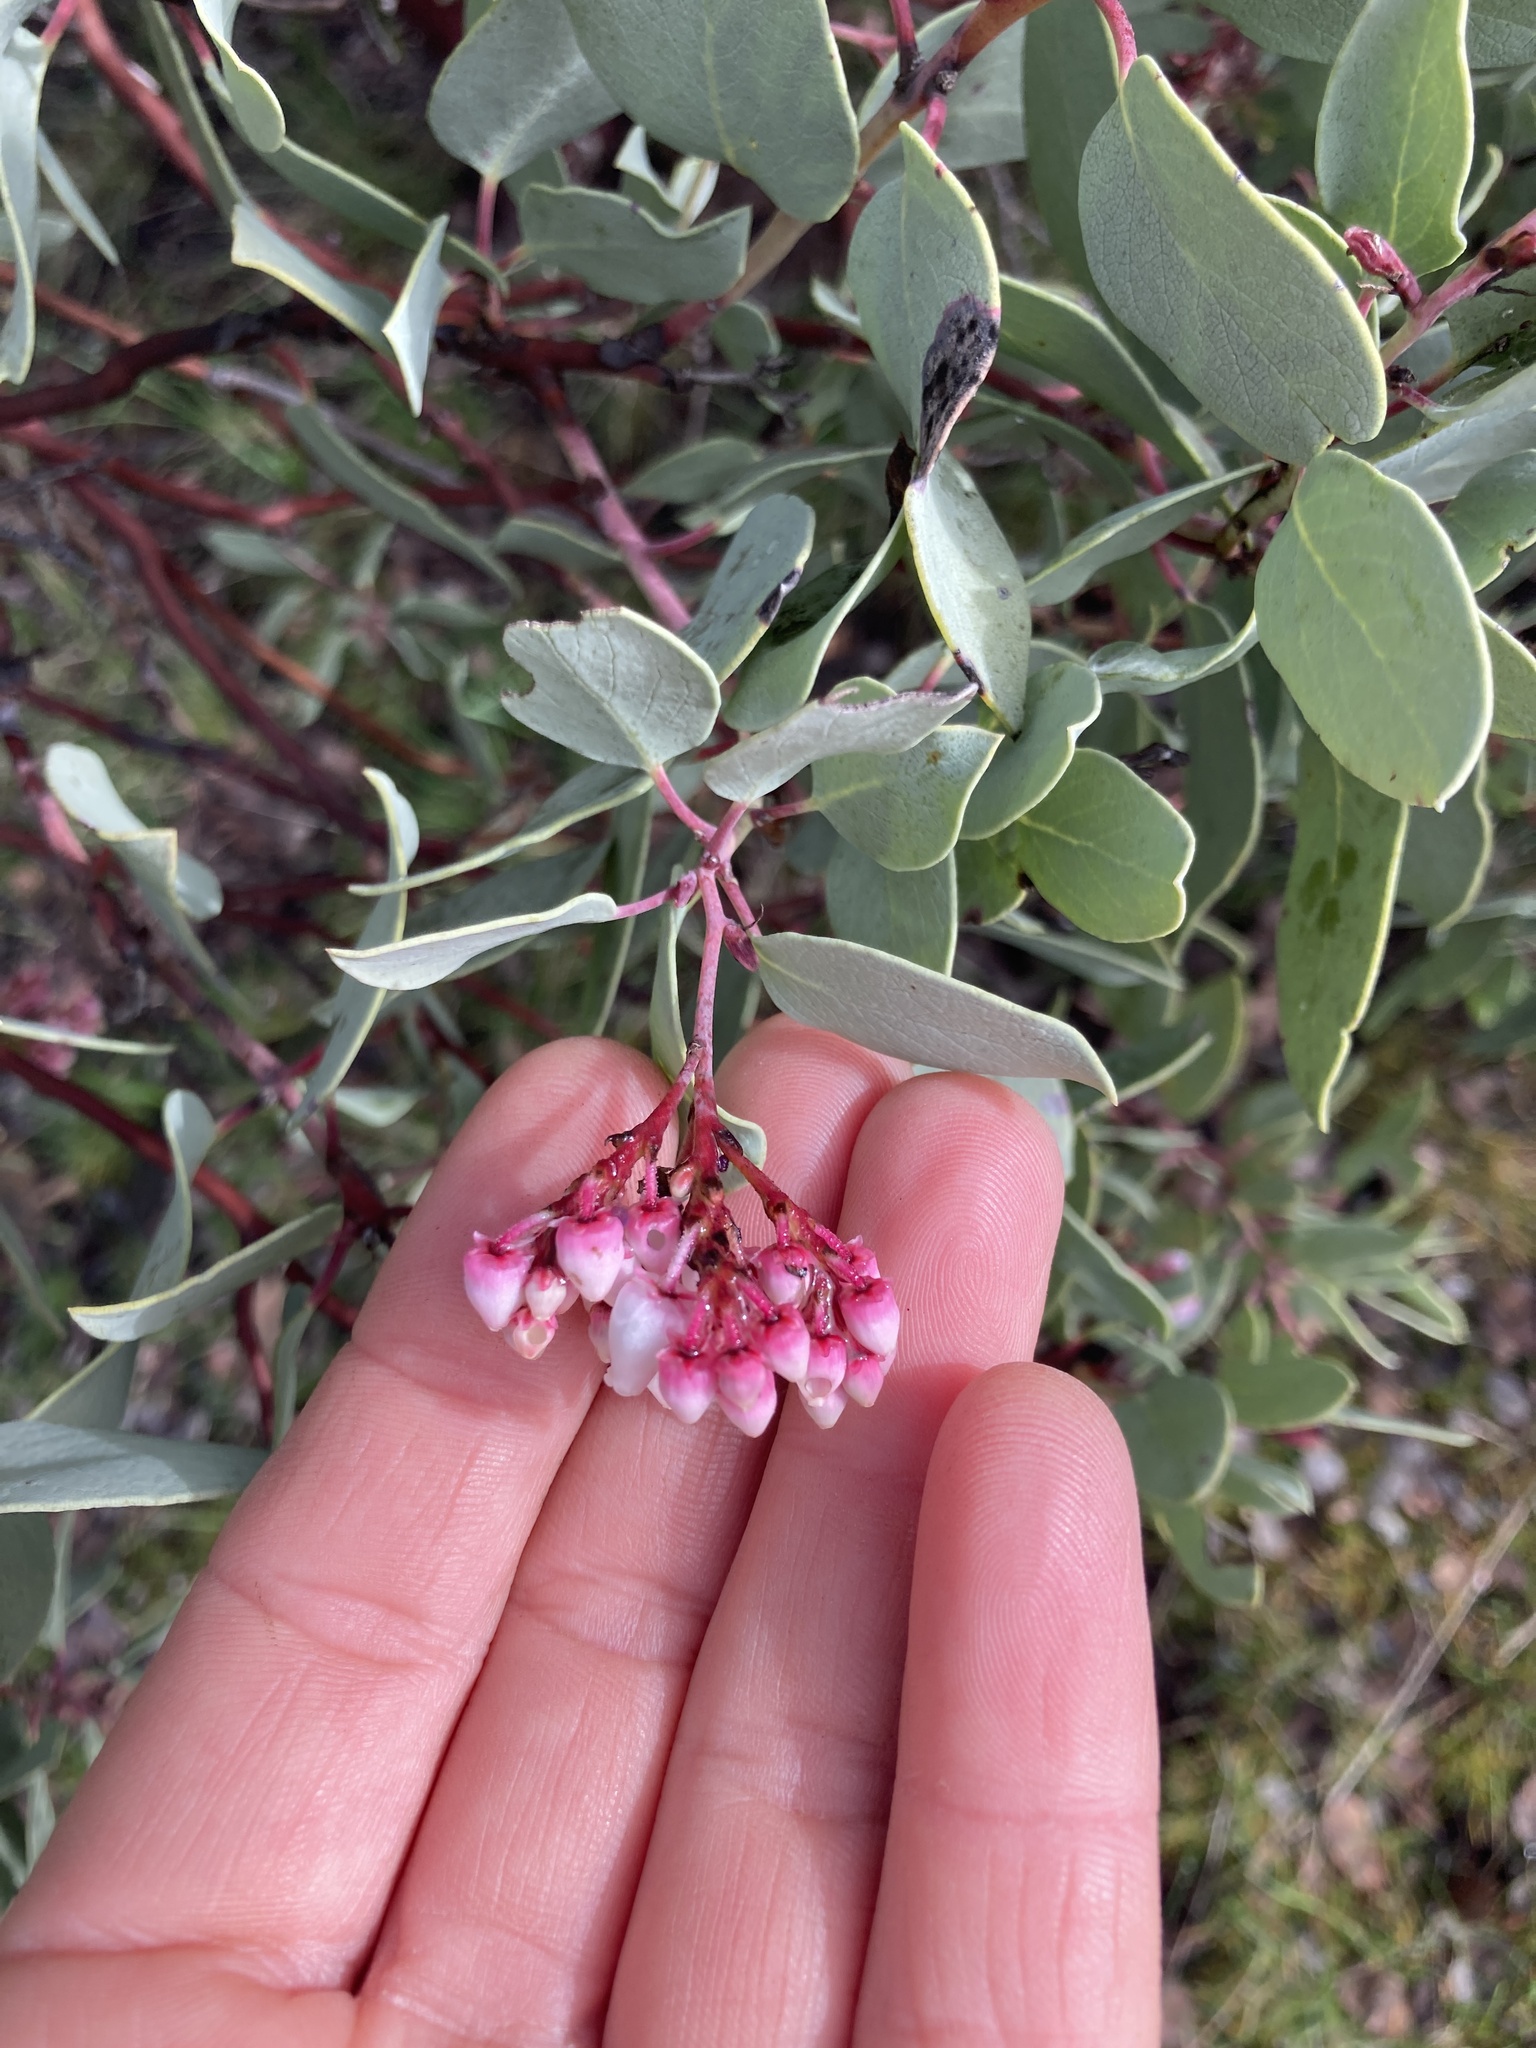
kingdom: Plantae
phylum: Tracheophyta
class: Magnoliopsida
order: Ericales
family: Ericaceae
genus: Arctostaphylos
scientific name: Arctostaphylos viscida
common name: White-leaf manzanita
